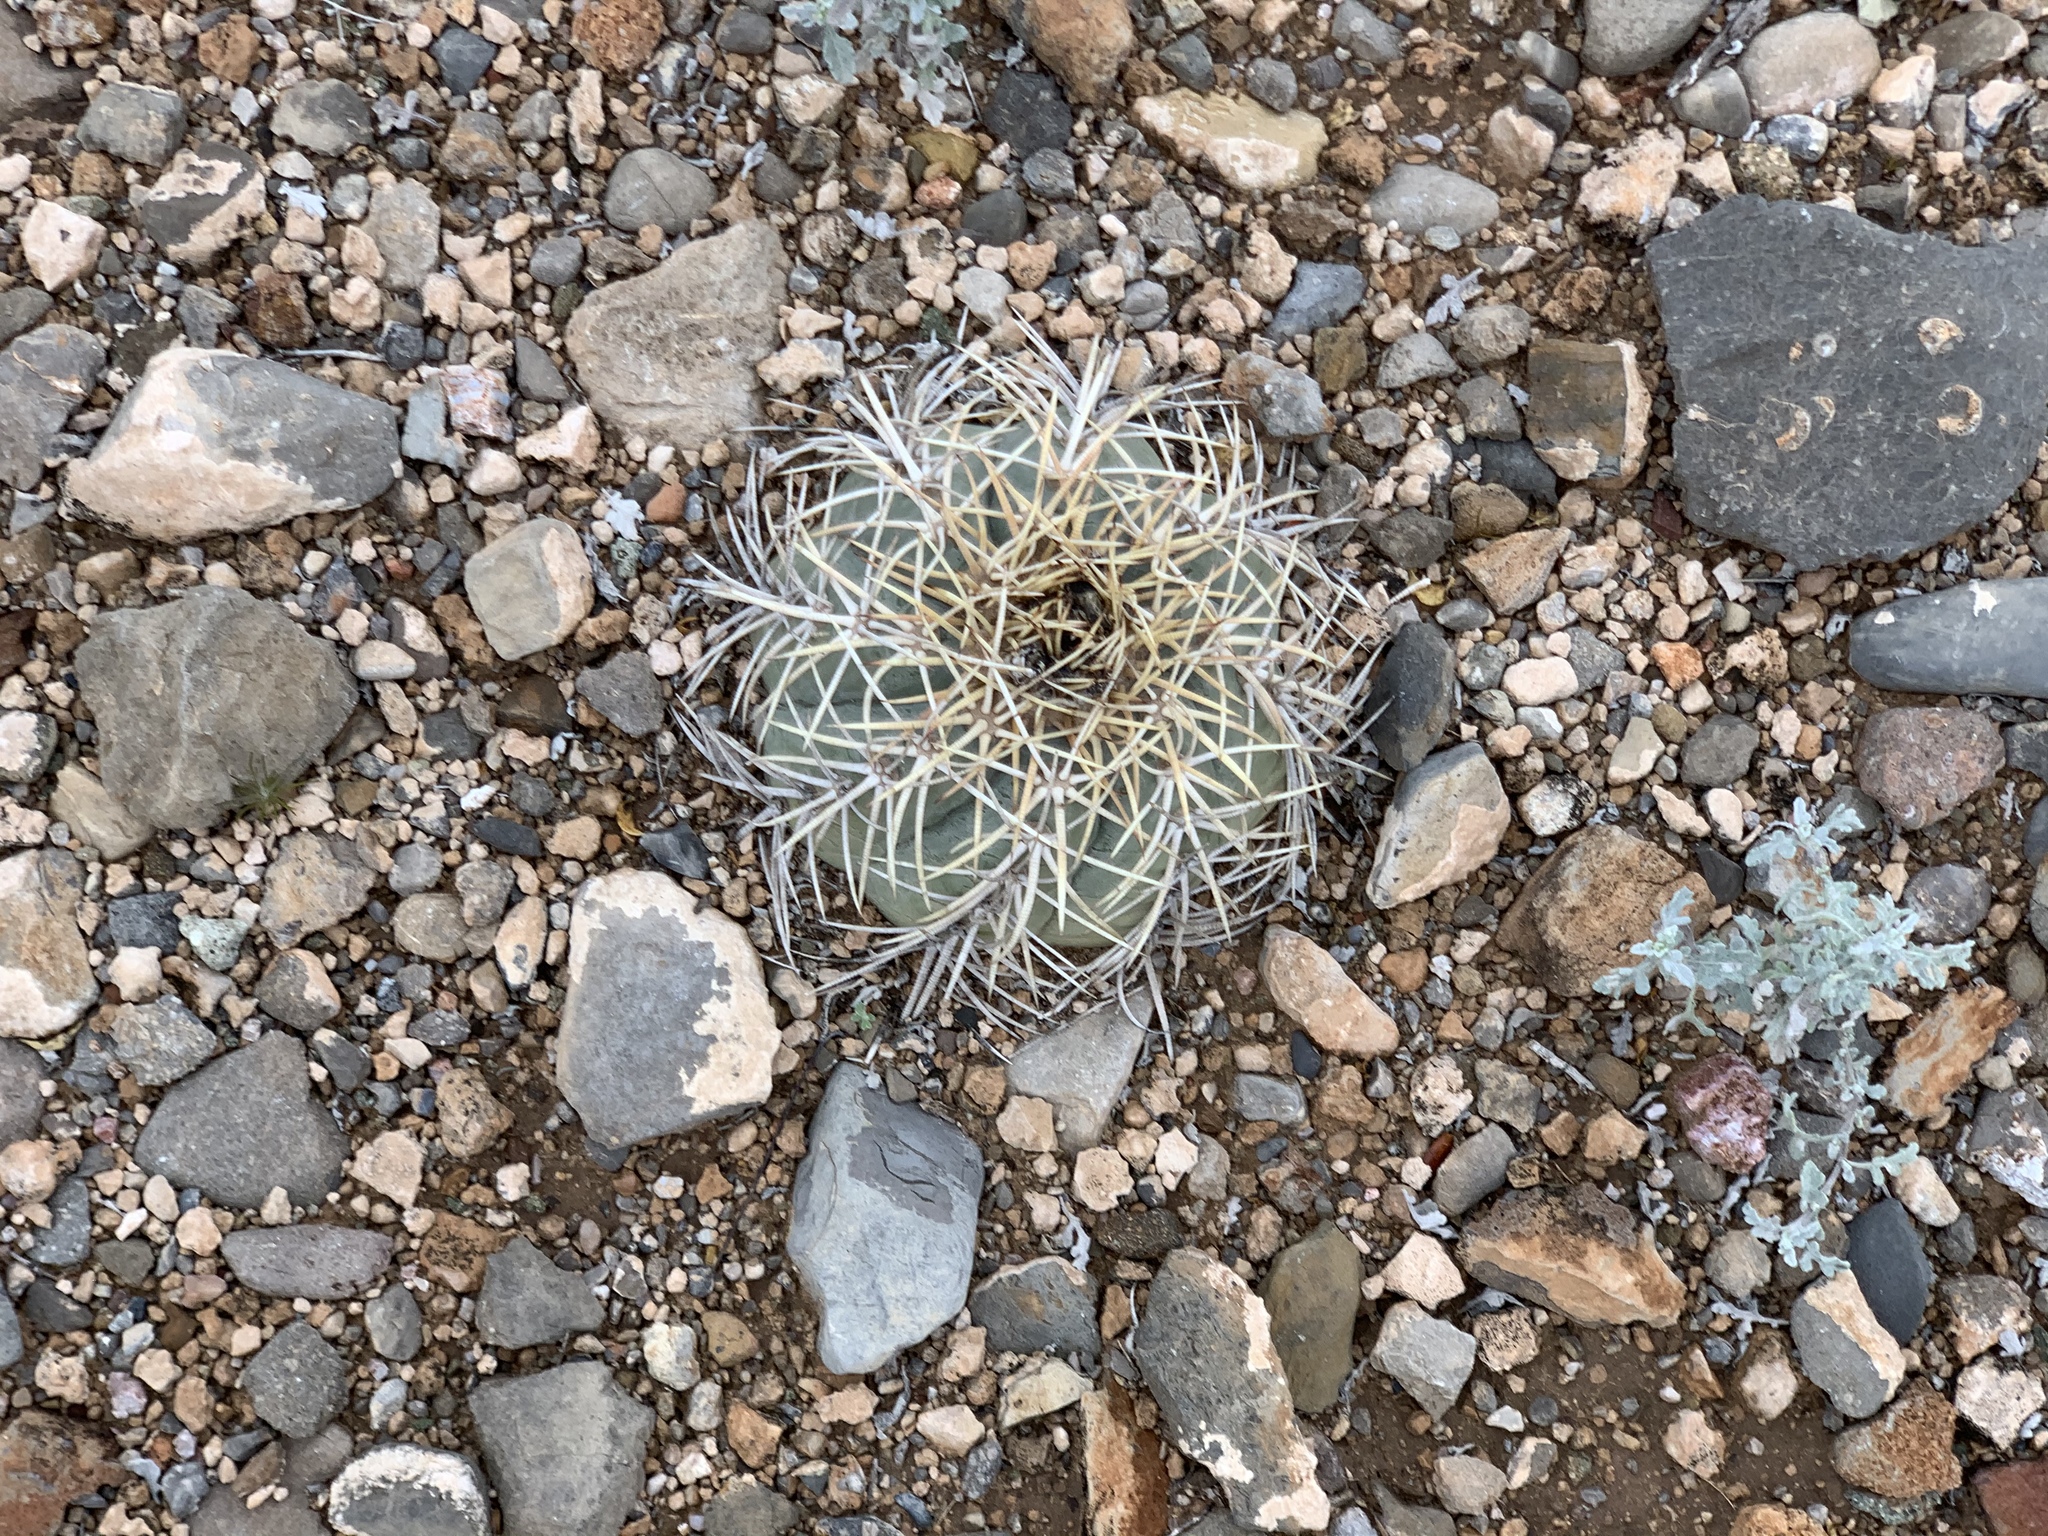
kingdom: Plantae
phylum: Tracheophyta
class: Magnoliopsida
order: Caryophyllales
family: Cactaceae
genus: Echinocactus
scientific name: Echinocactus horizonthalonius
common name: Devilshead
